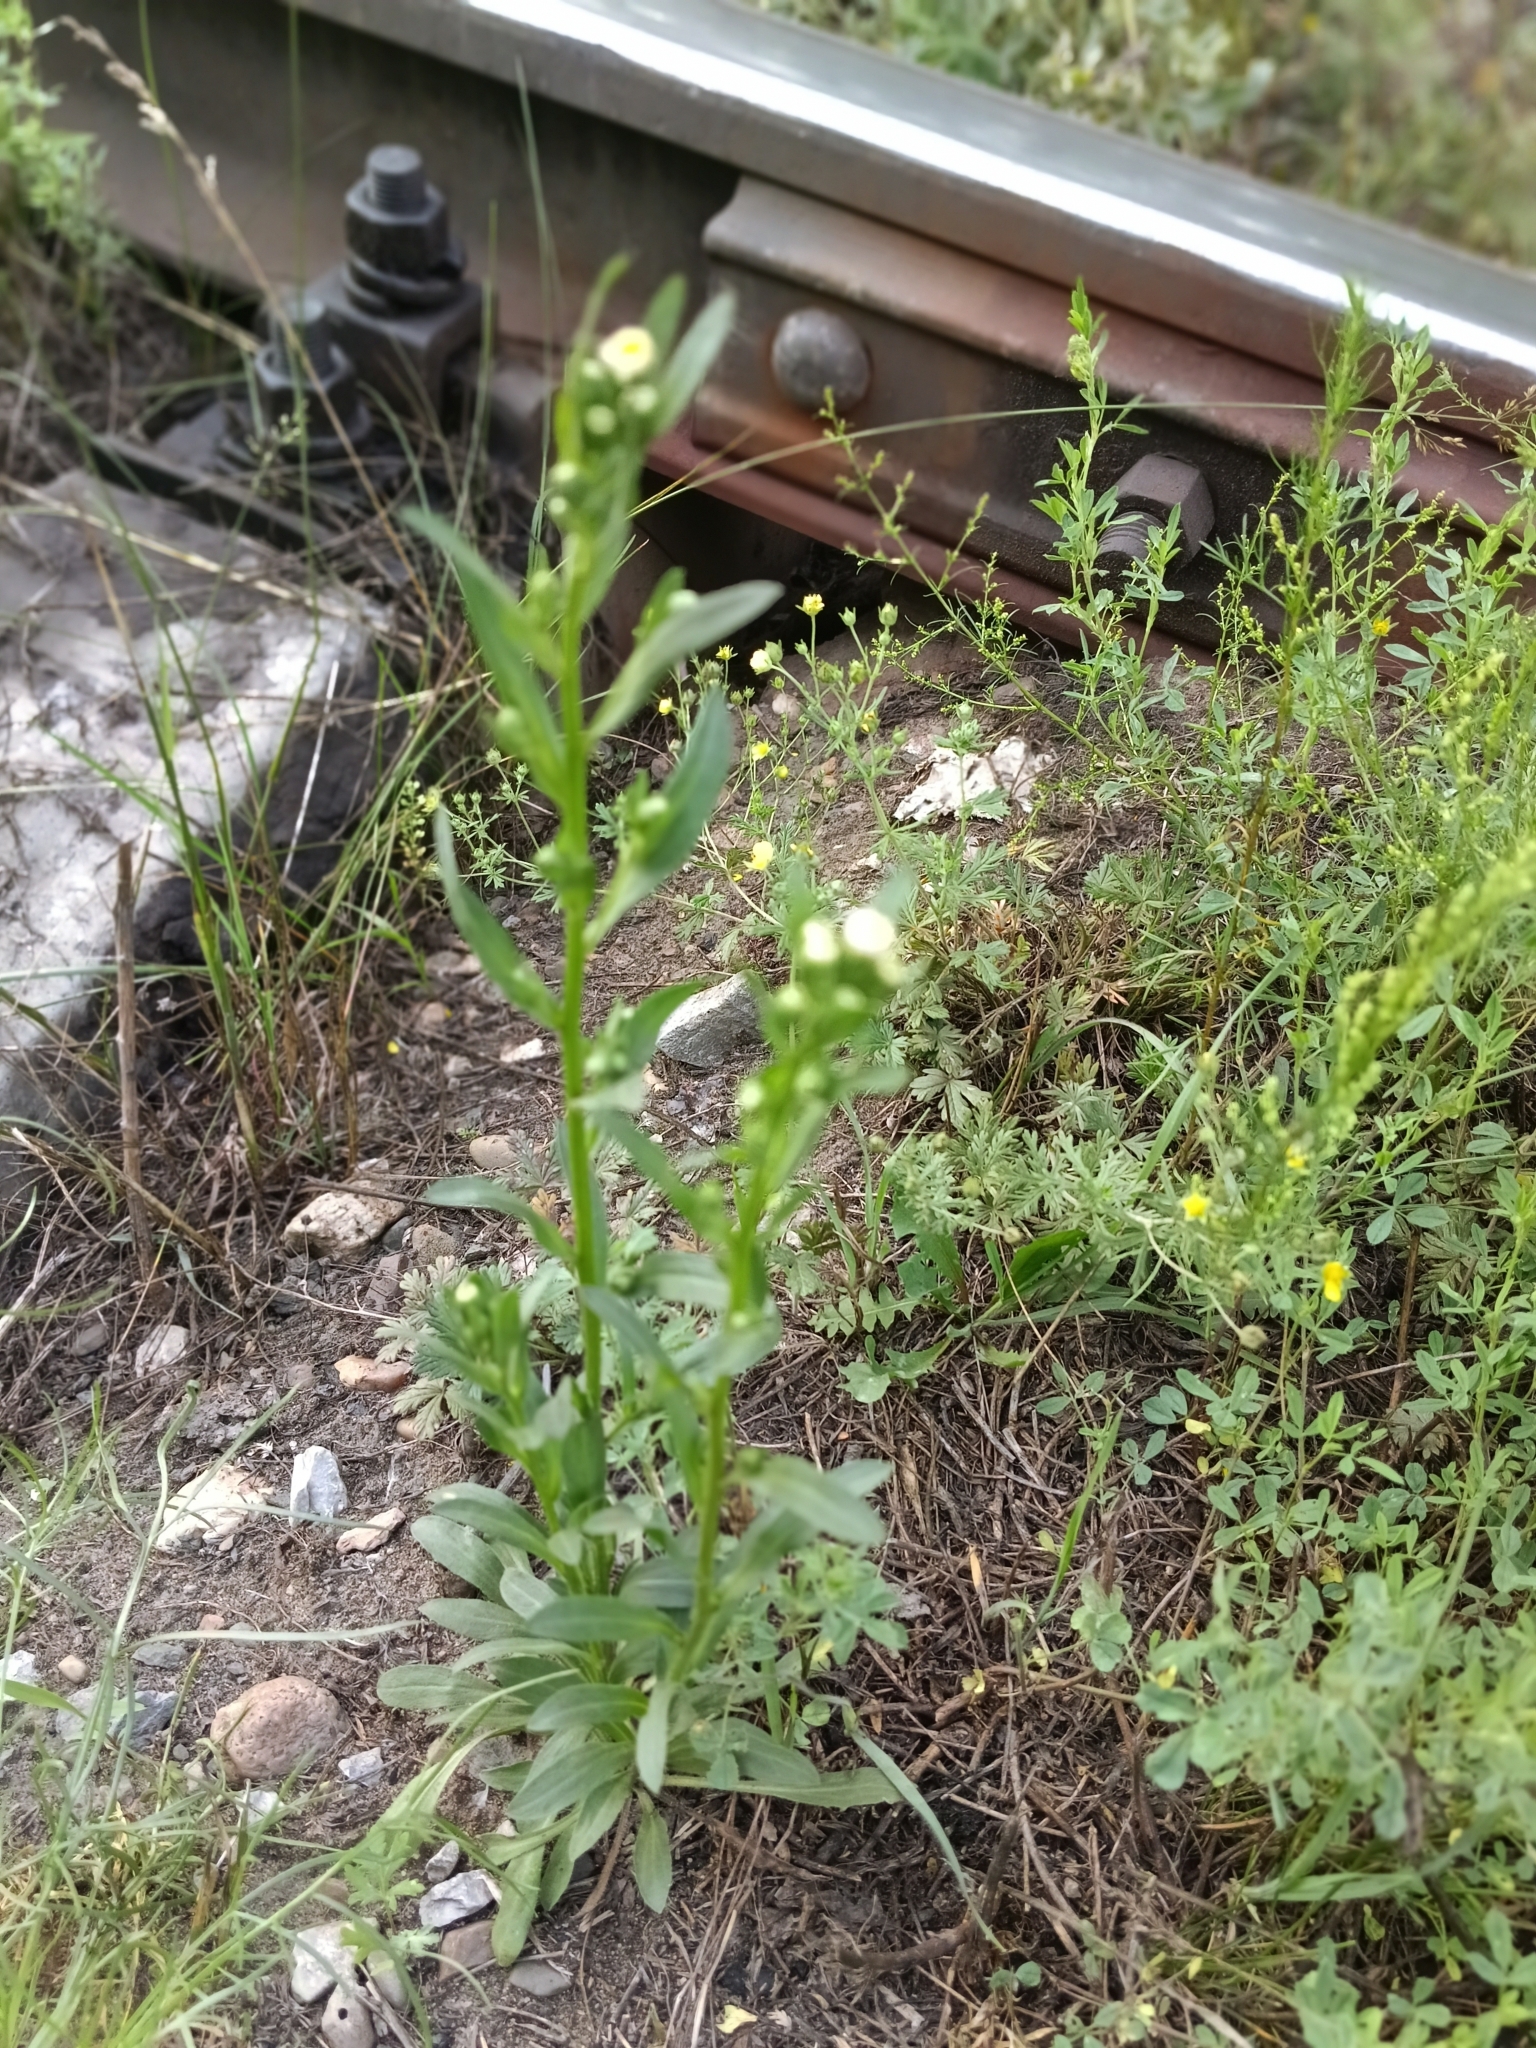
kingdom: Plantae
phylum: Tracheophyta
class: Magnoliopsida
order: Asterales
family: Asteraceae
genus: Erigeron
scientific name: Erigeron acris
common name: Blue fleabane
